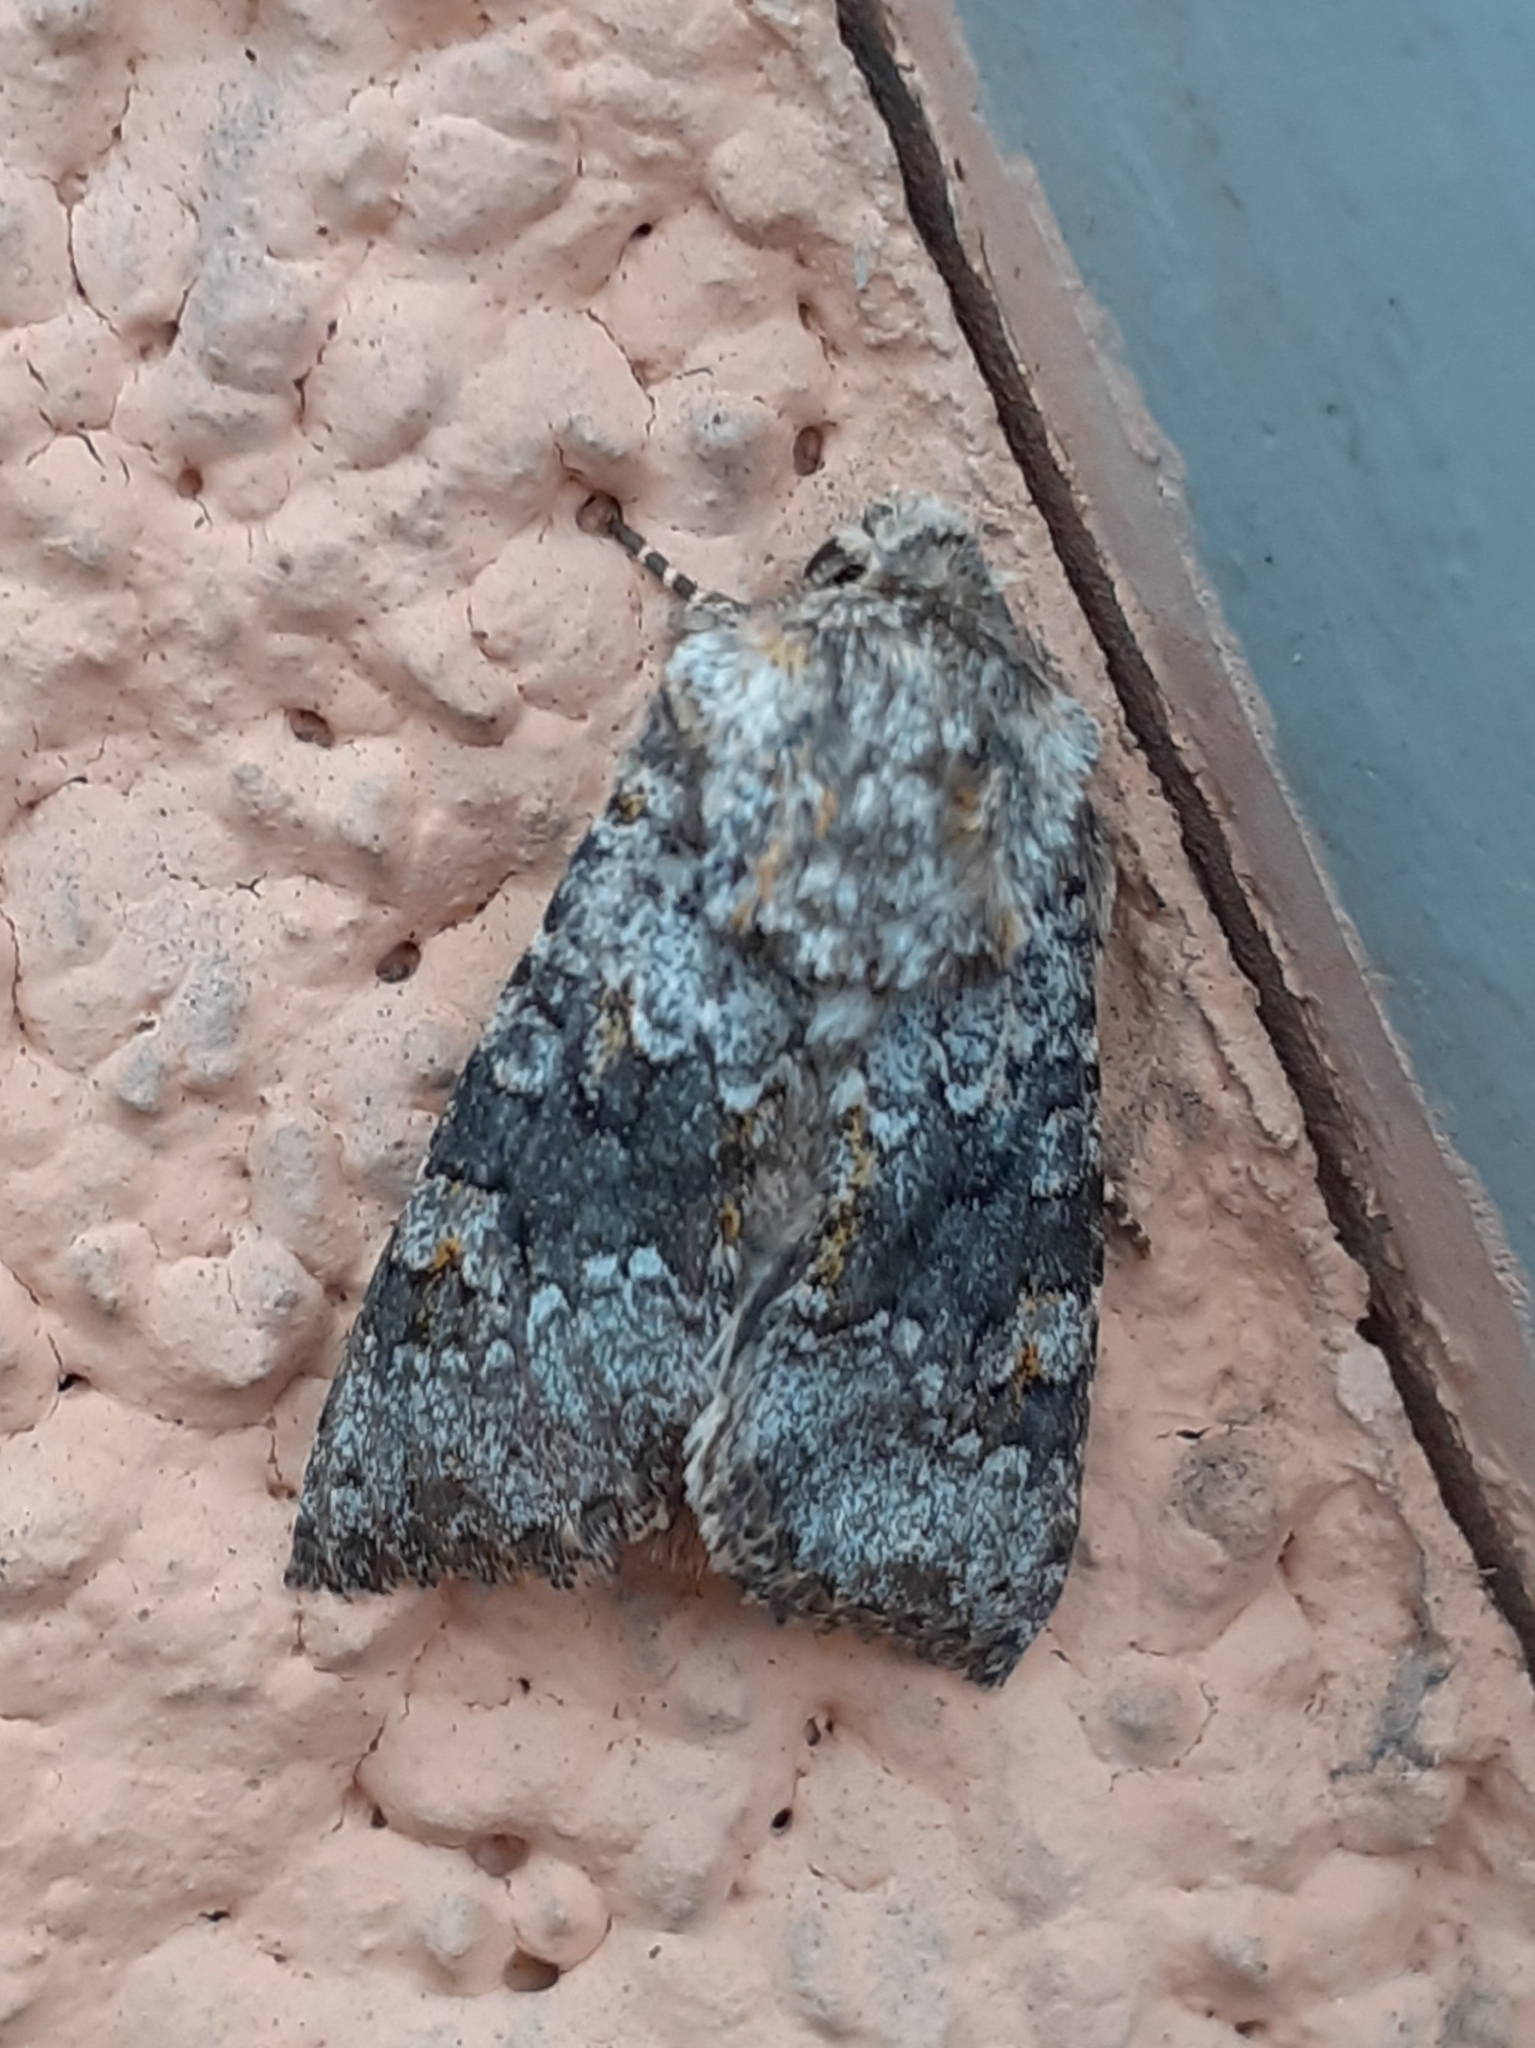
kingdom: Animalia
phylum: Arthropoda
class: Insecta
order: Lepidoptera
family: Noctuidae
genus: Hecatera
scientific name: Hecatera dysodea
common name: Small ranunculus
